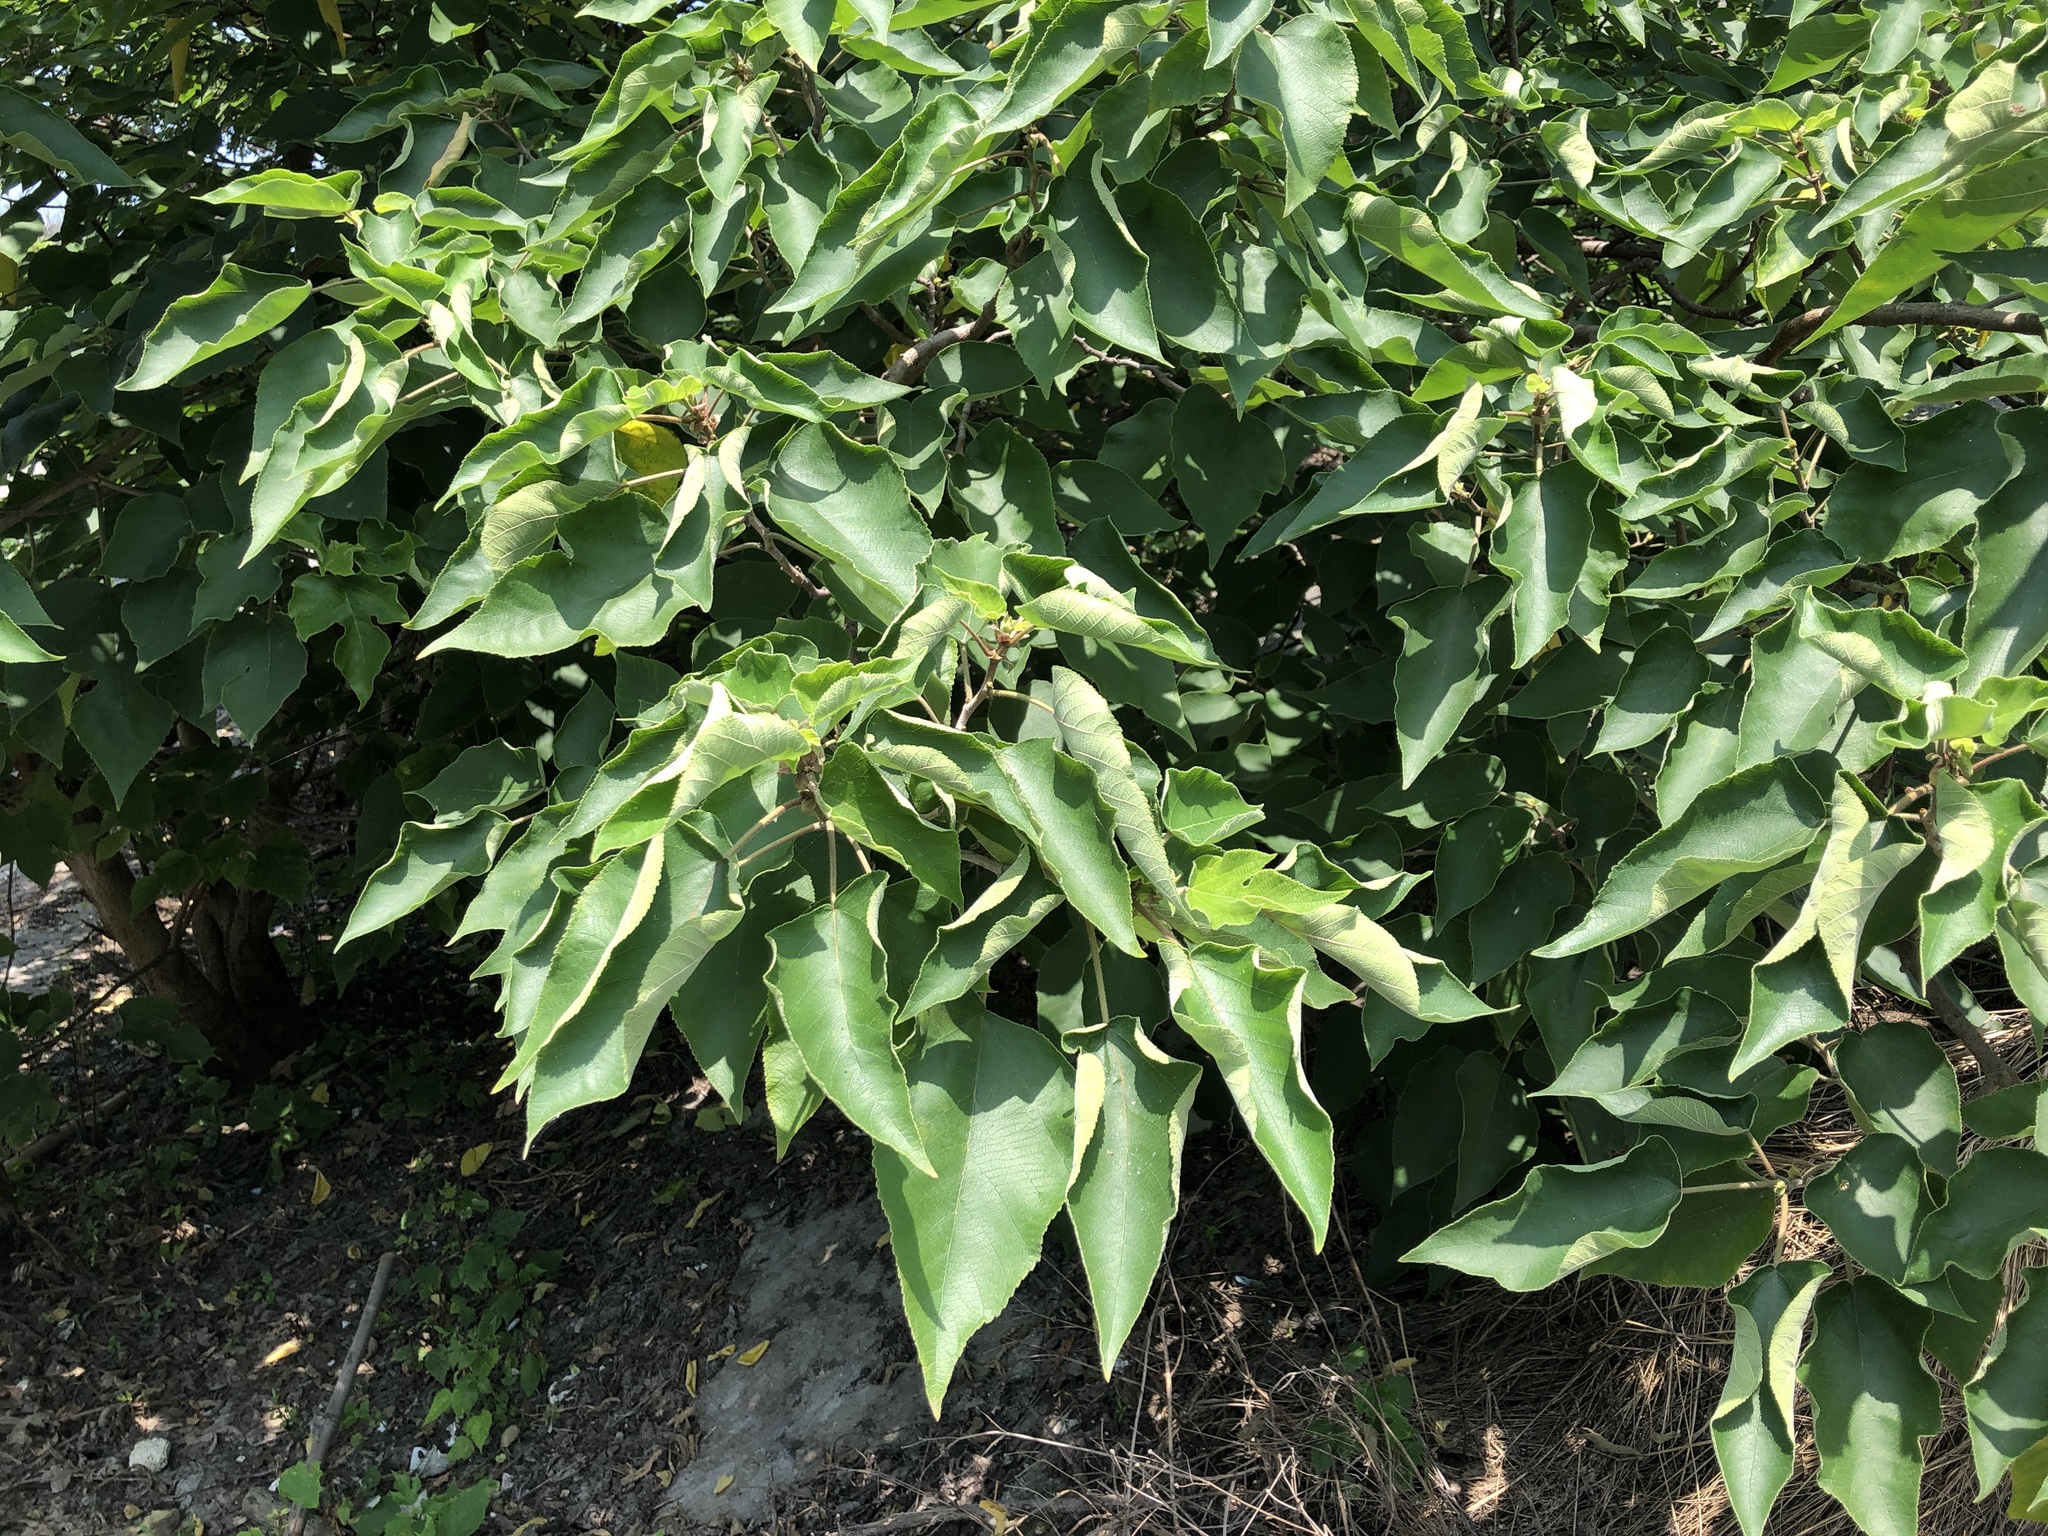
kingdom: Plantae
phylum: Tracheophyta
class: Magnoliopsida
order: Rosales
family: Moraceae
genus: Broussonetia
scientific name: Broussonetia papyrifera
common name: Paper mulberry
